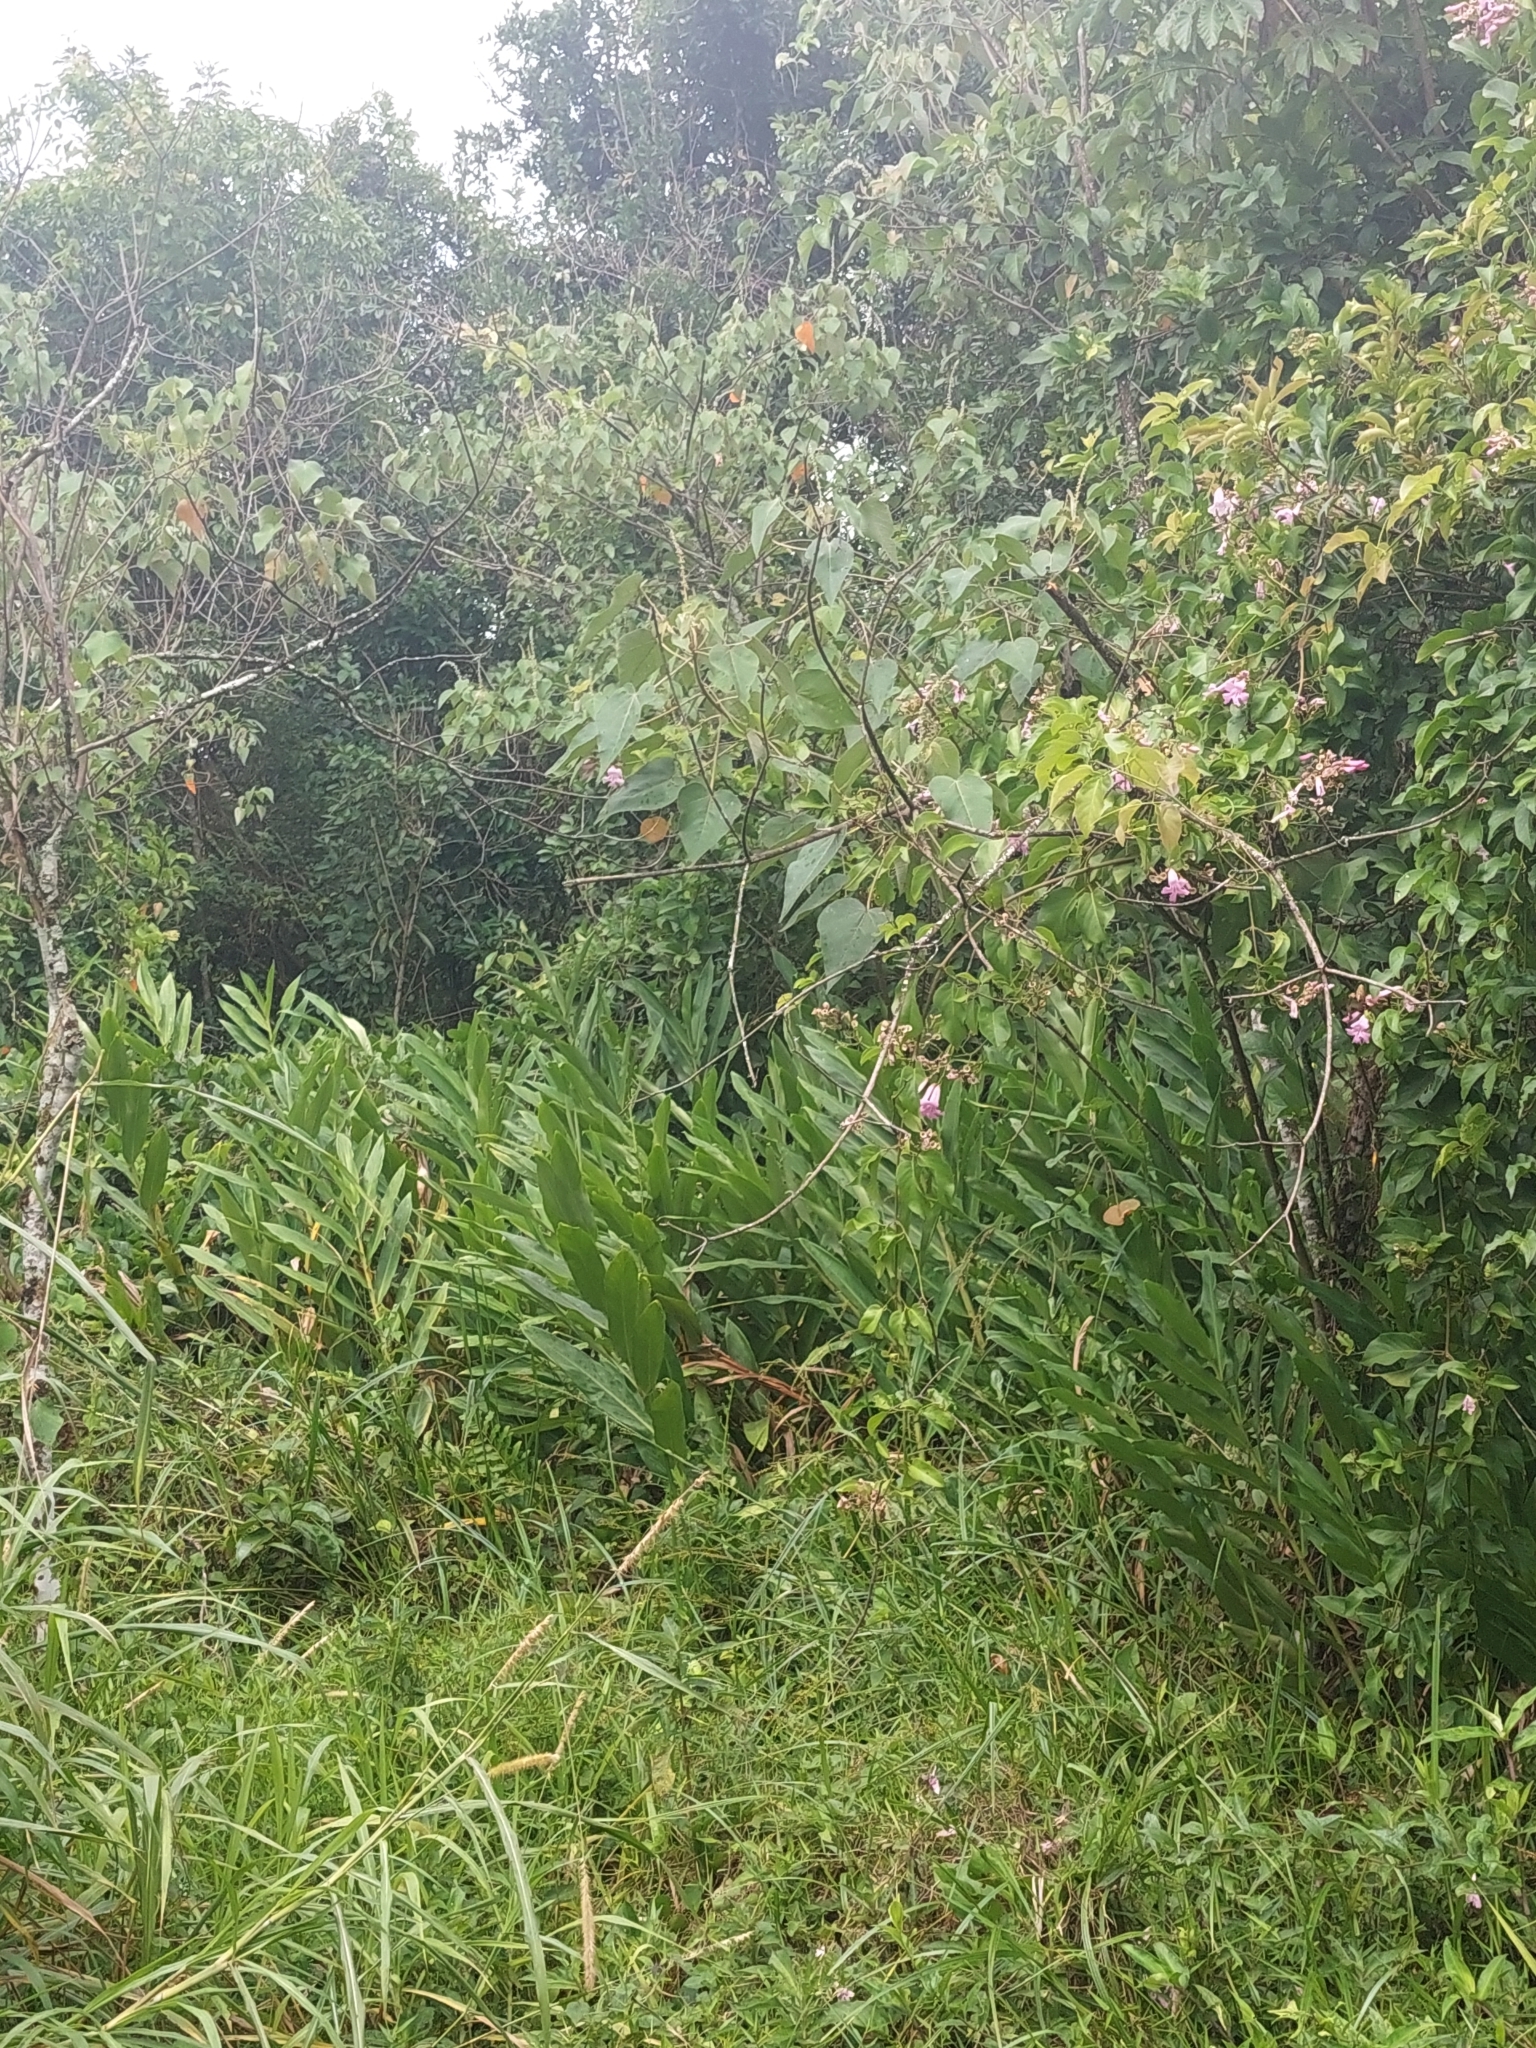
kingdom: Plantae
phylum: Tracheophyta
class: Liliopsida
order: Zingiberales
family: Zingiberaceae
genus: Hedychium
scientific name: Hedychium coronarium
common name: White garland-lily
